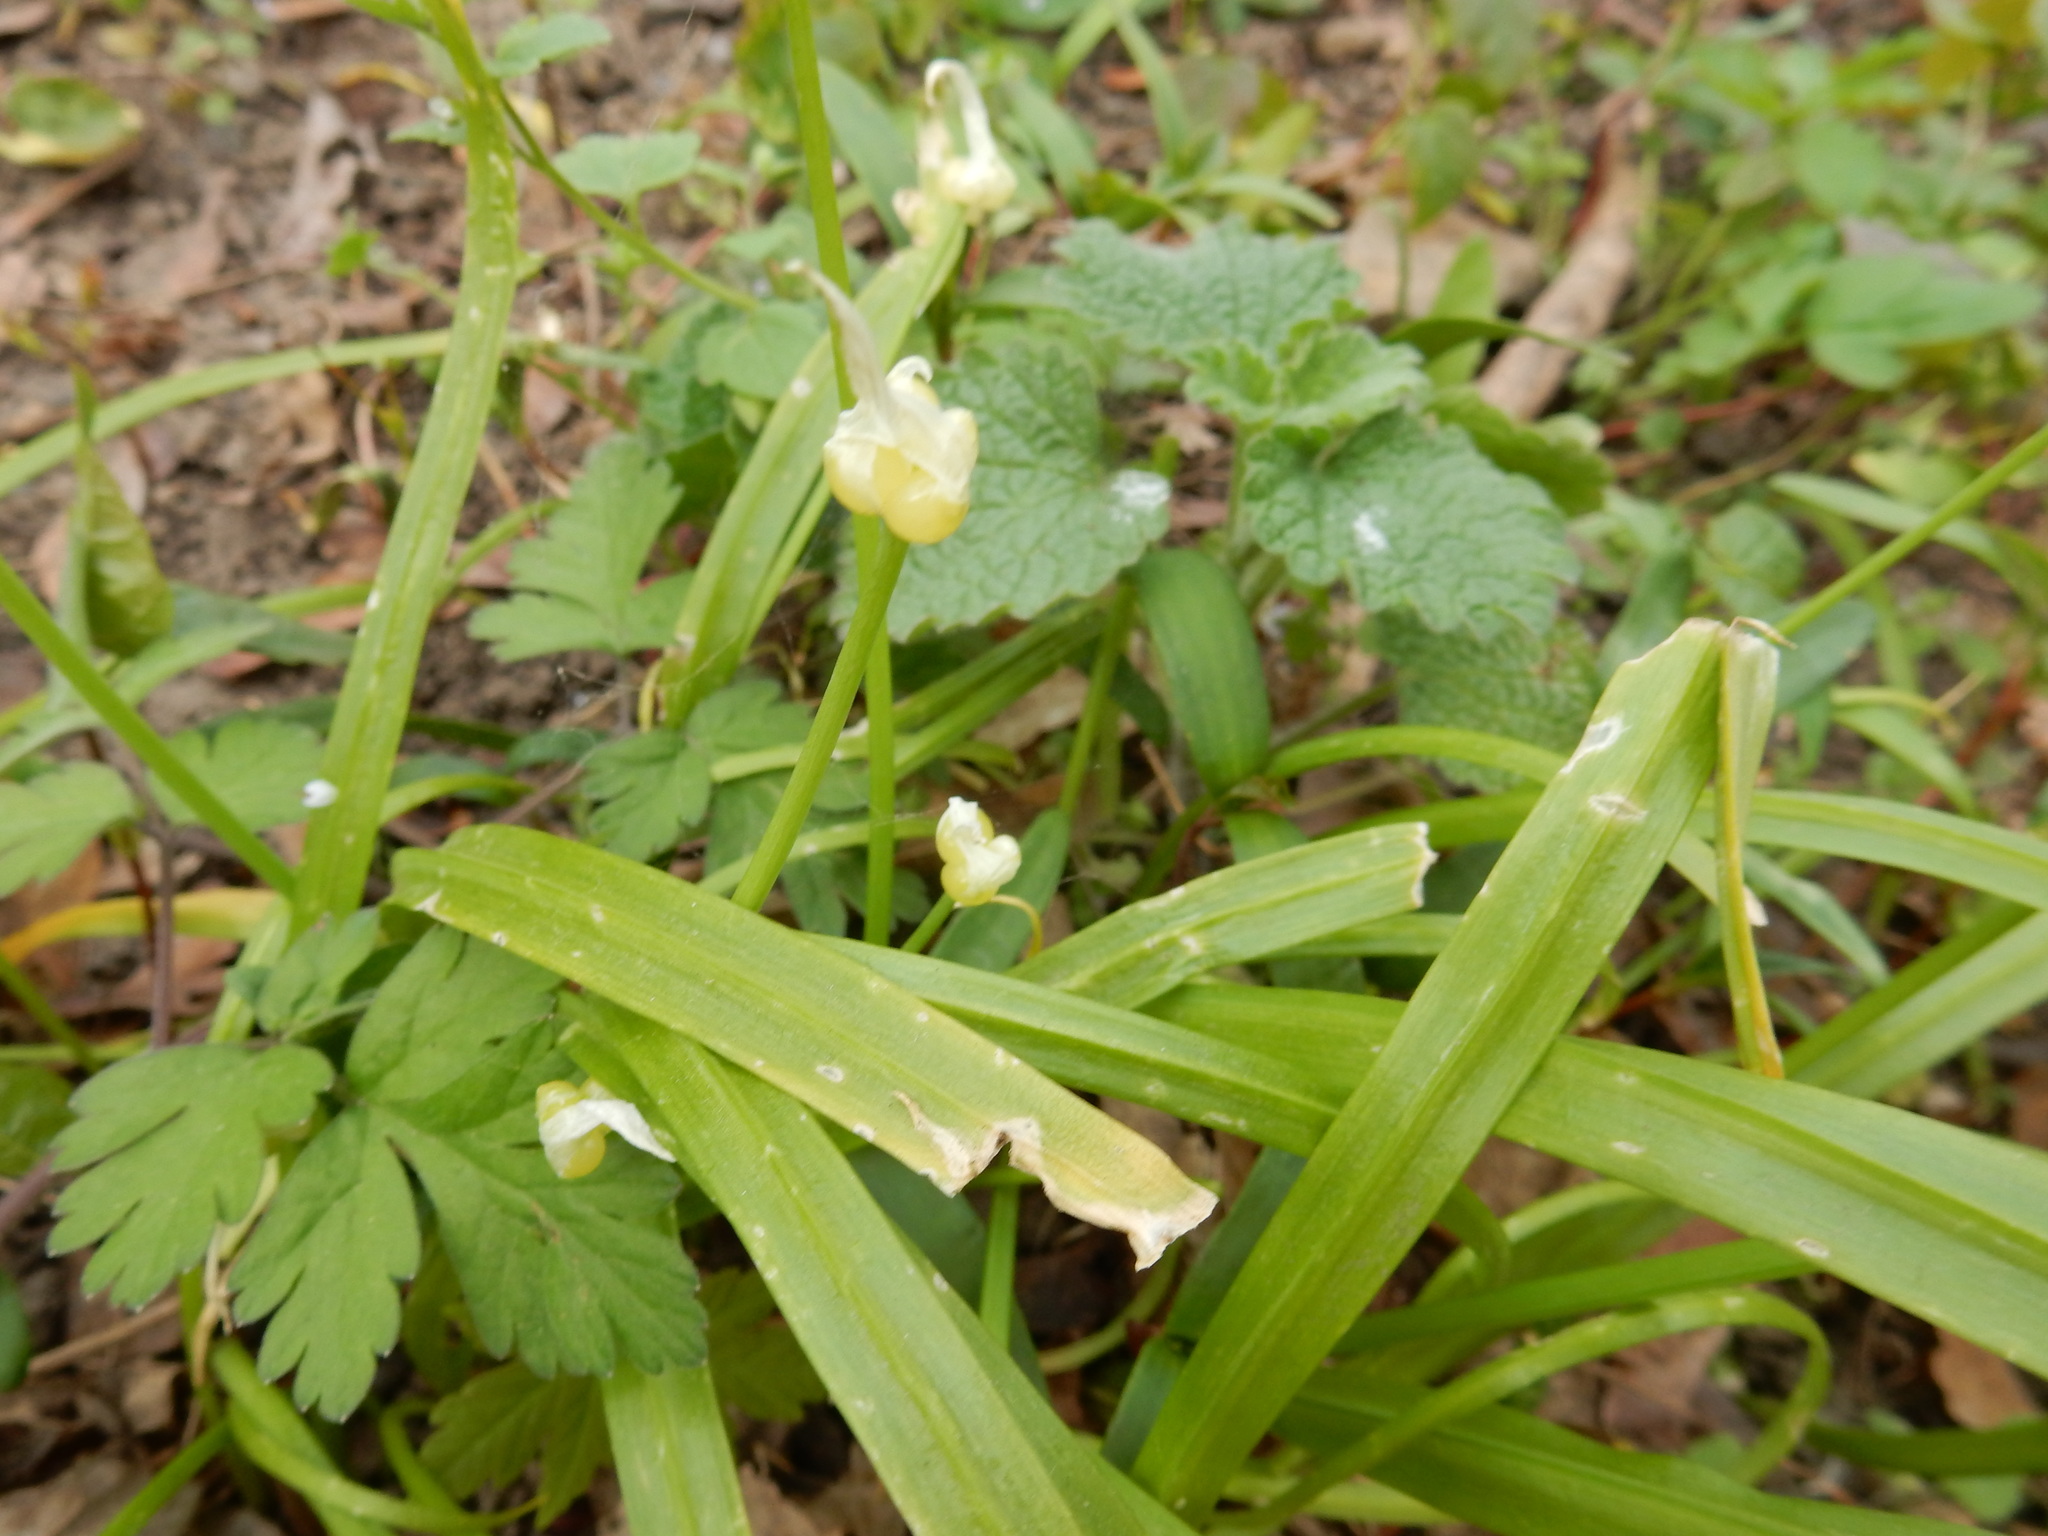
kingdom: Plantae
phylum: Tracheophyta
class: Liliopsida
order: Asparagales
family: Amaryllidaceae
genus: Allium
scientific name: Allium paradoxum
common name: Few-flowered garlic
